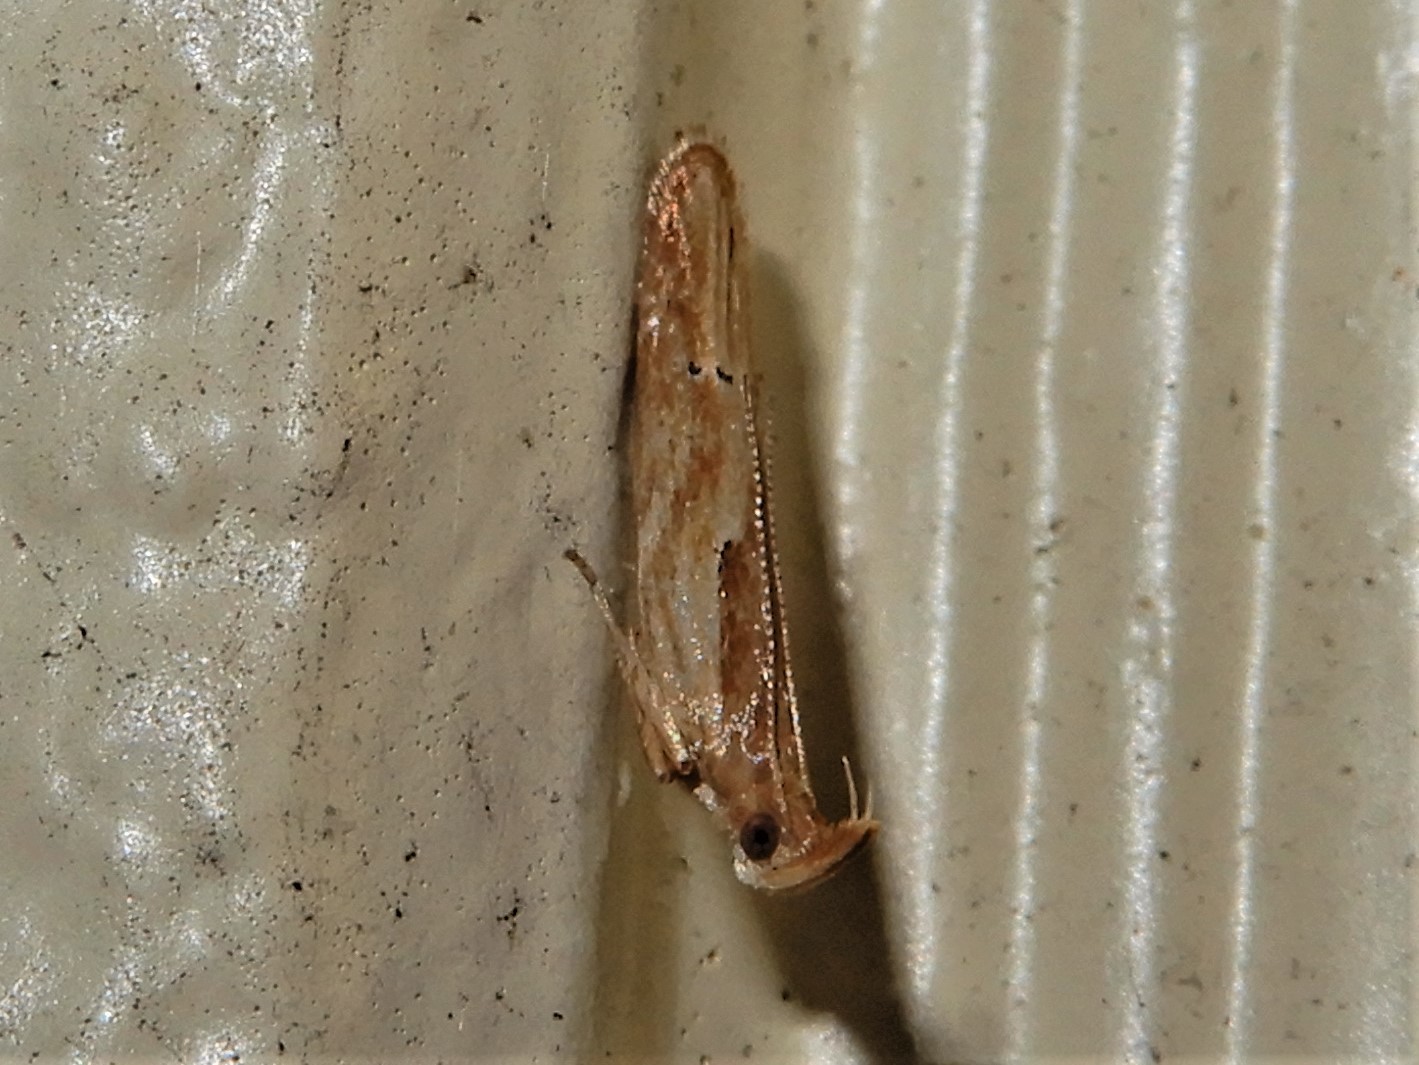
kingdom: Animalia
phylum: Arthropoda
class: Insecta
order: Lepidoptera
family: Depressariidae
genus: Eutorna
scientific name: Eutorna symmorpha
